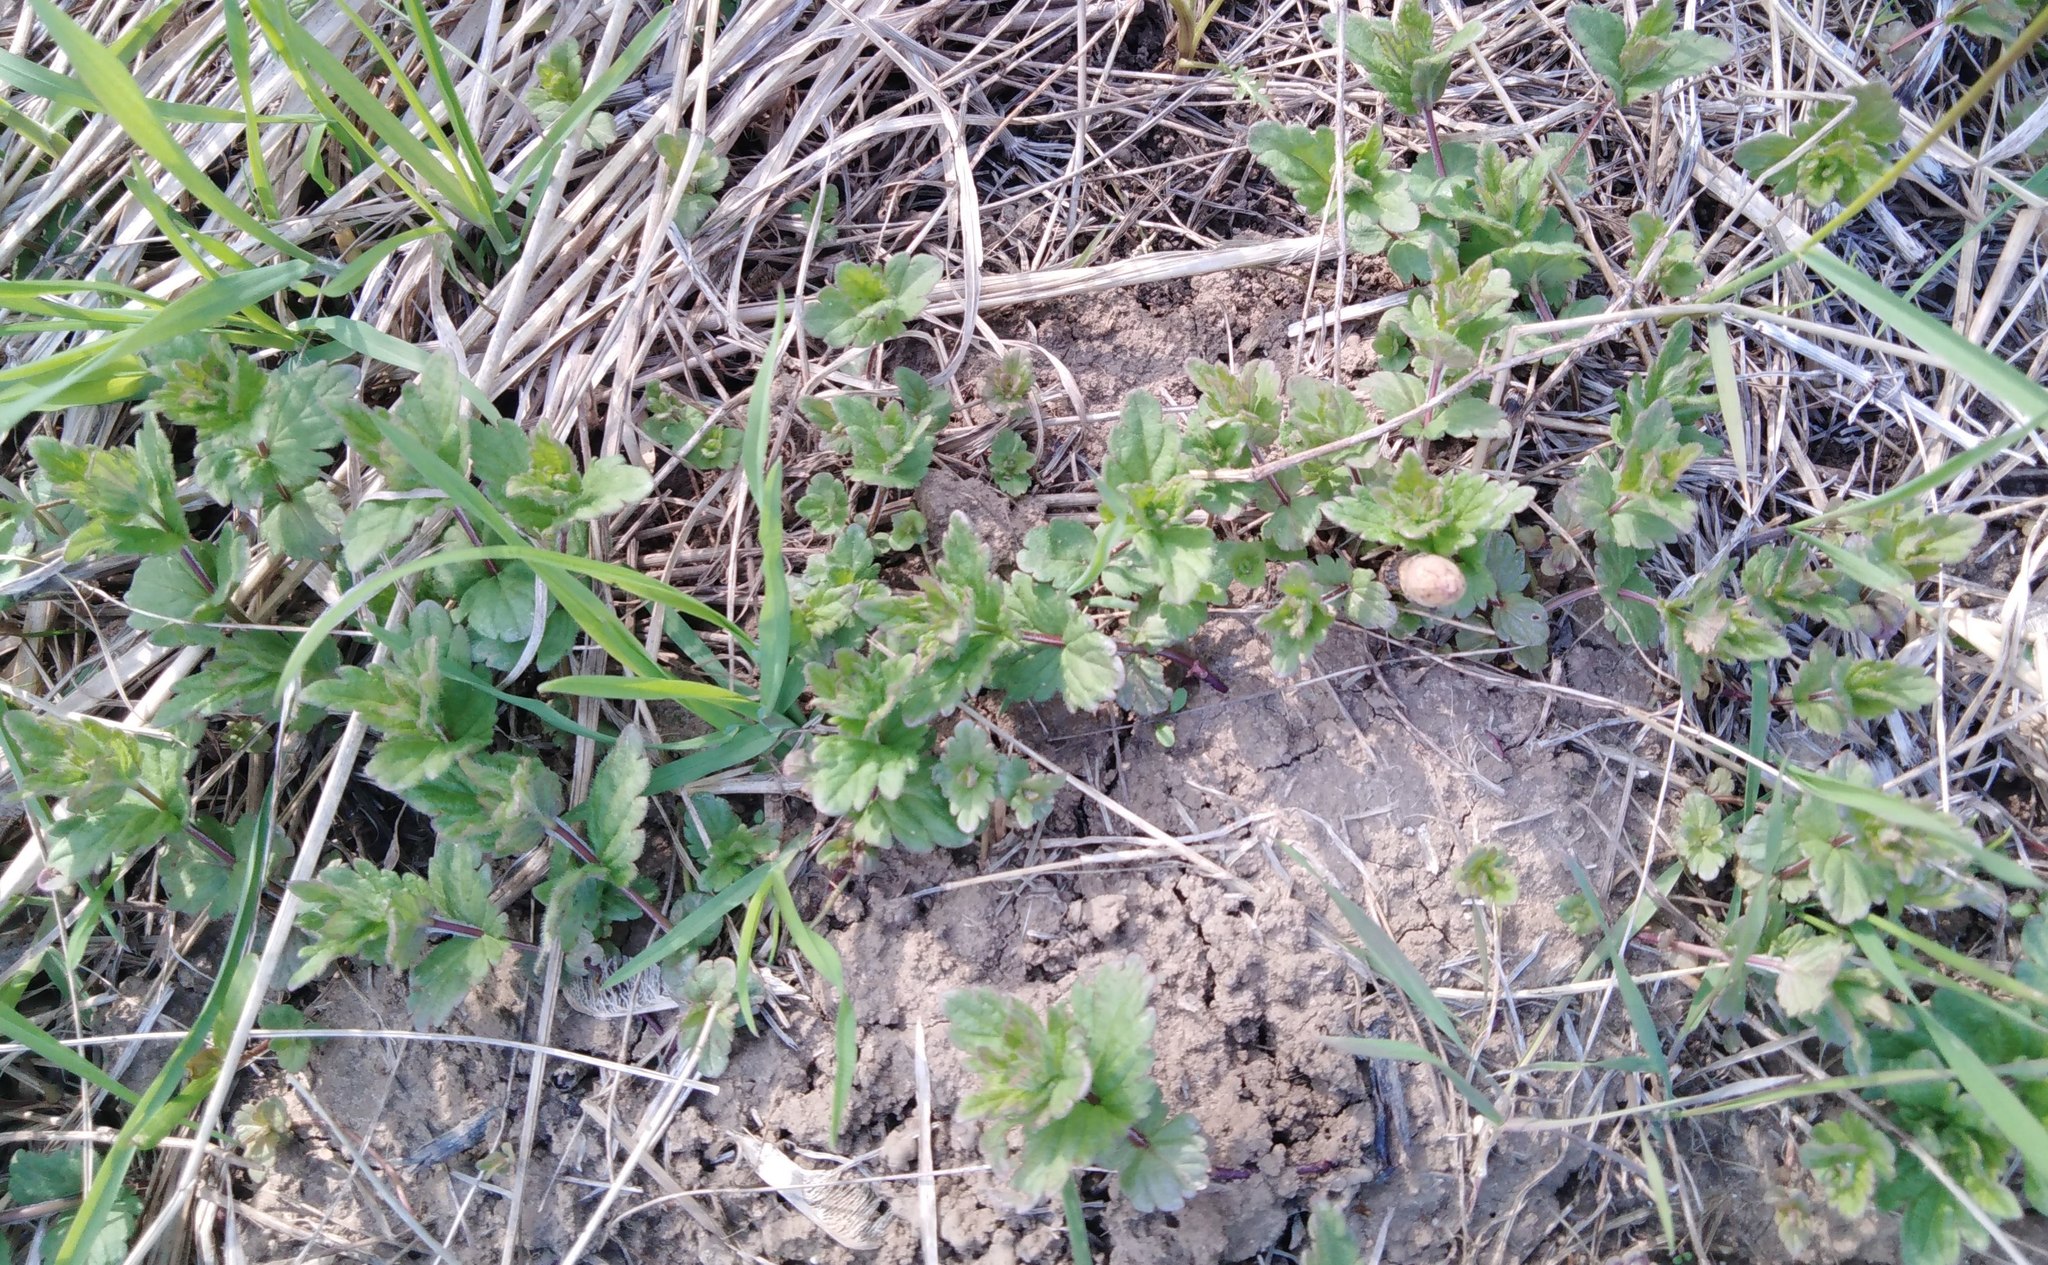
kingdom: Plantae
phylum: Tracheophyta
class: Magnoliopsida
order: Lamiales
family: Plantaginaceae
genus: Veronica
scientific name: Veronica chamaedrys
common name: Germander speedwell
